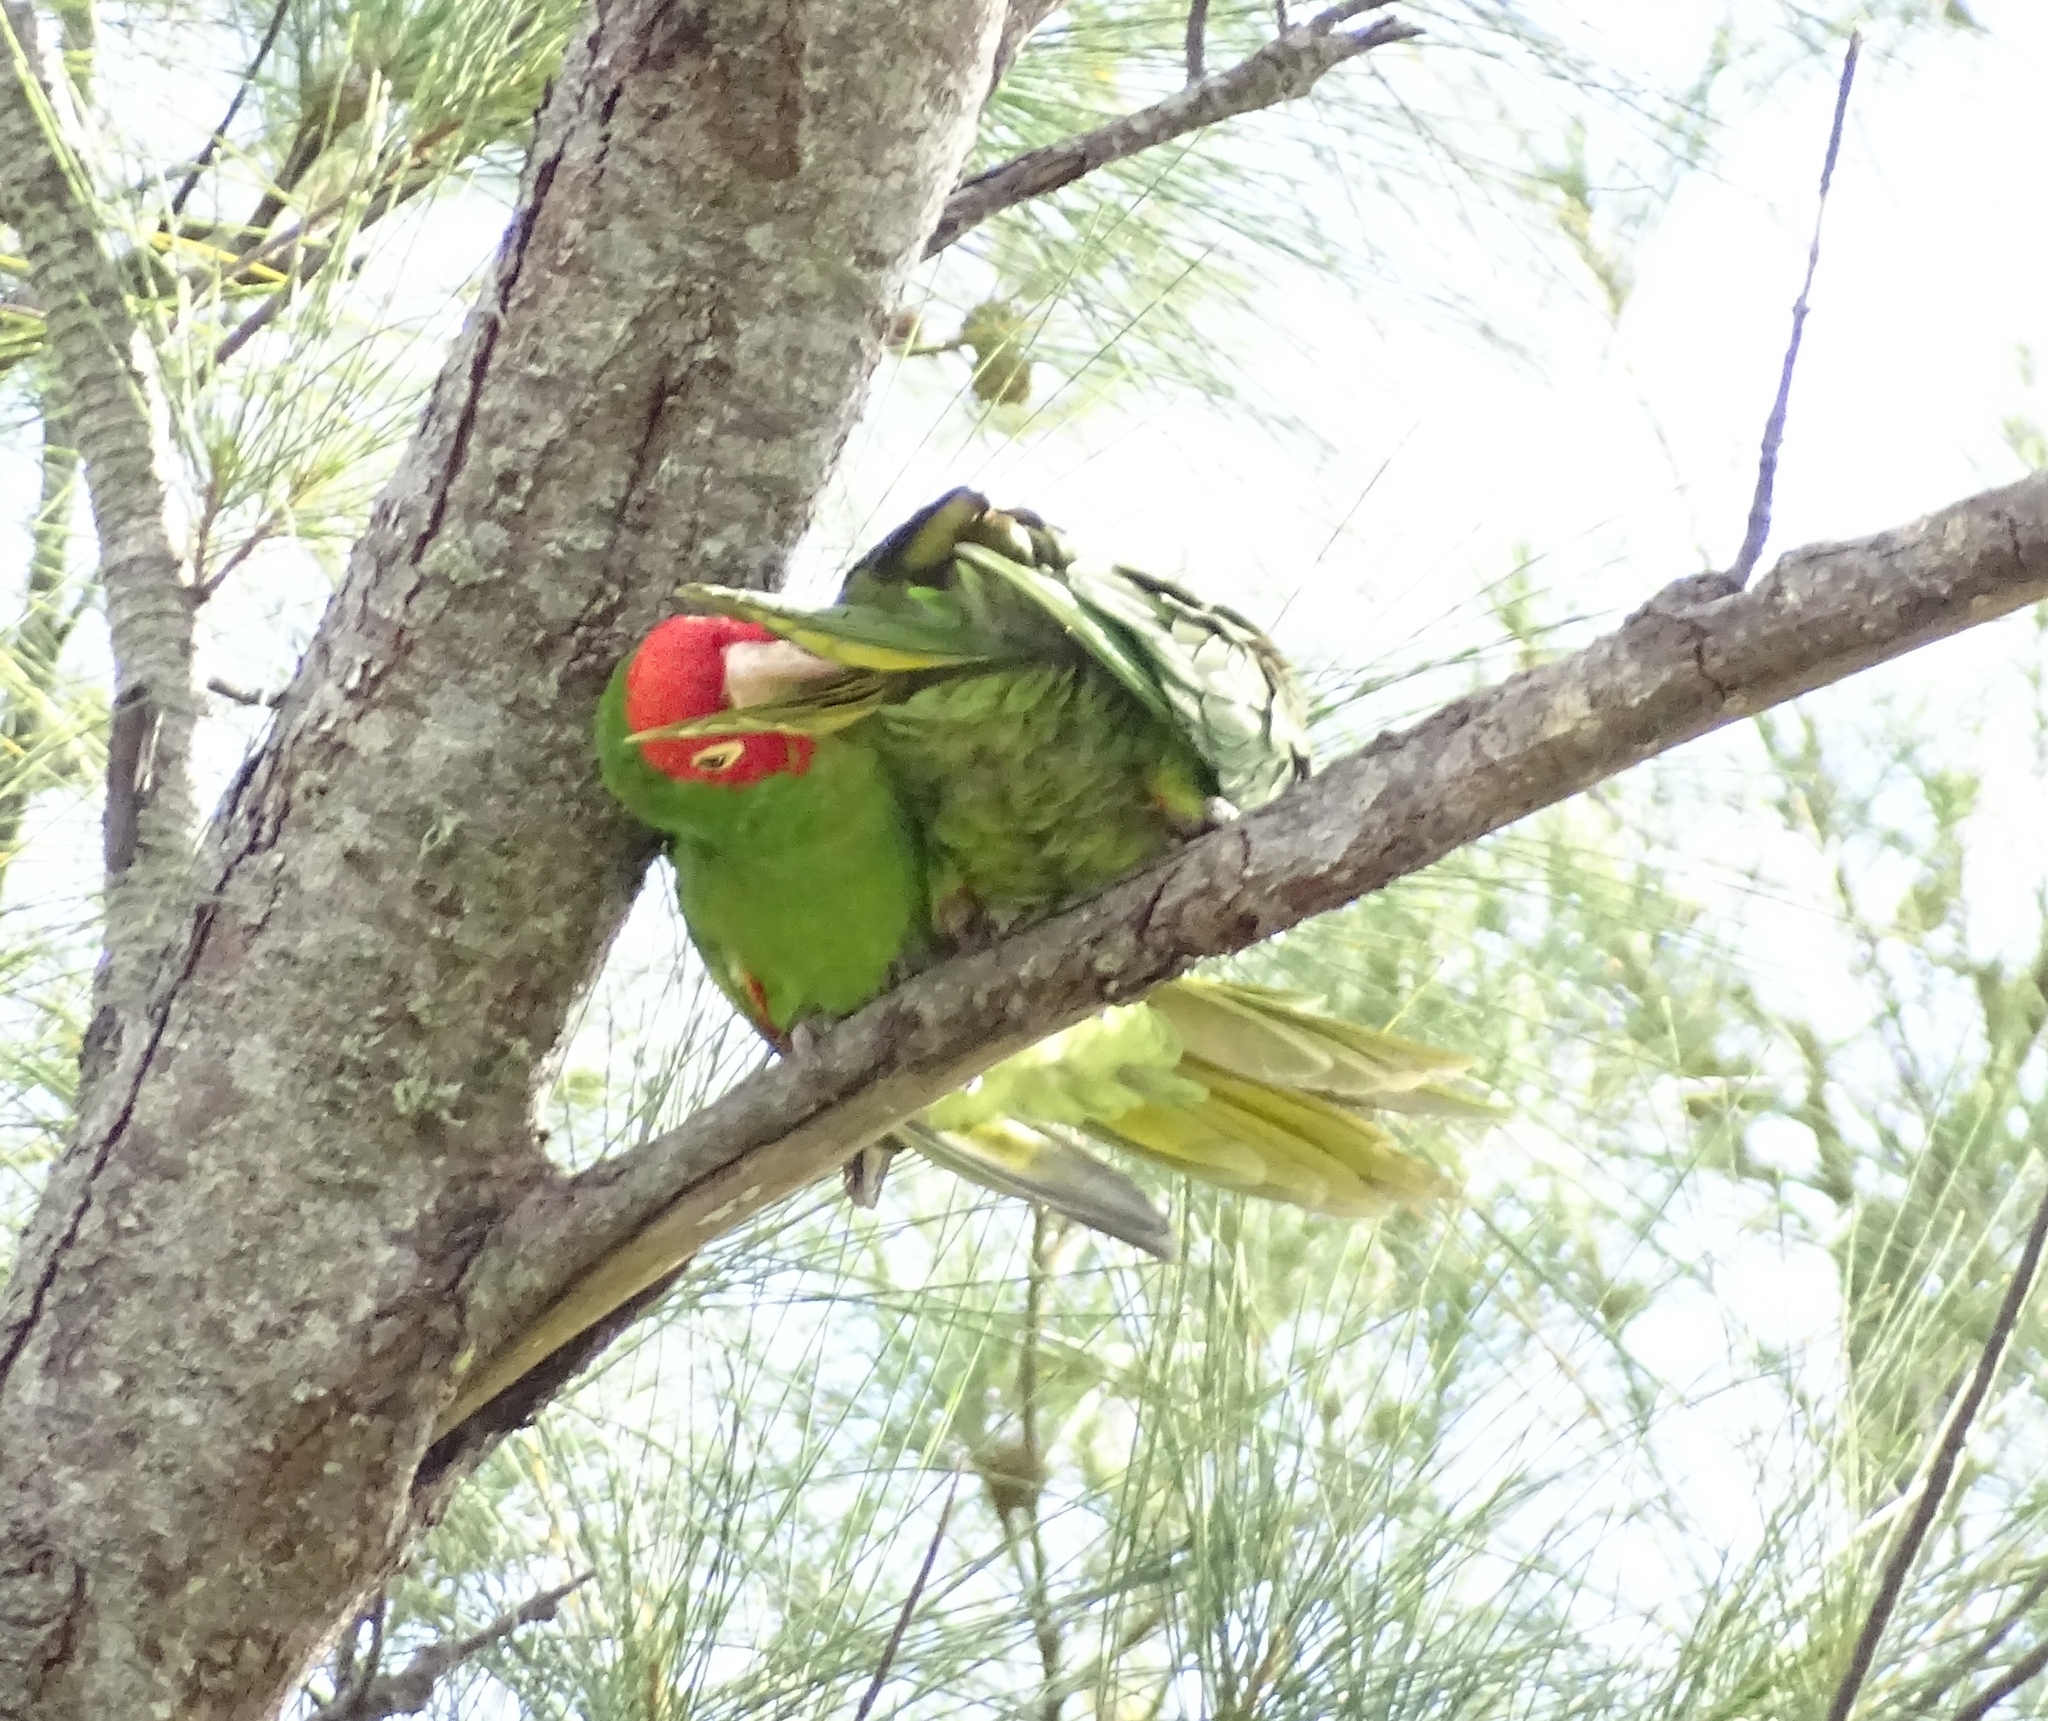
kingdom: Animalia
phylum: Chordata
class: Aves
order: Psittaciformes
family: Psittacidae
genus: Aratinga
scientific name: Aratinga erythrogenys
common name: Red-masked parakeet
